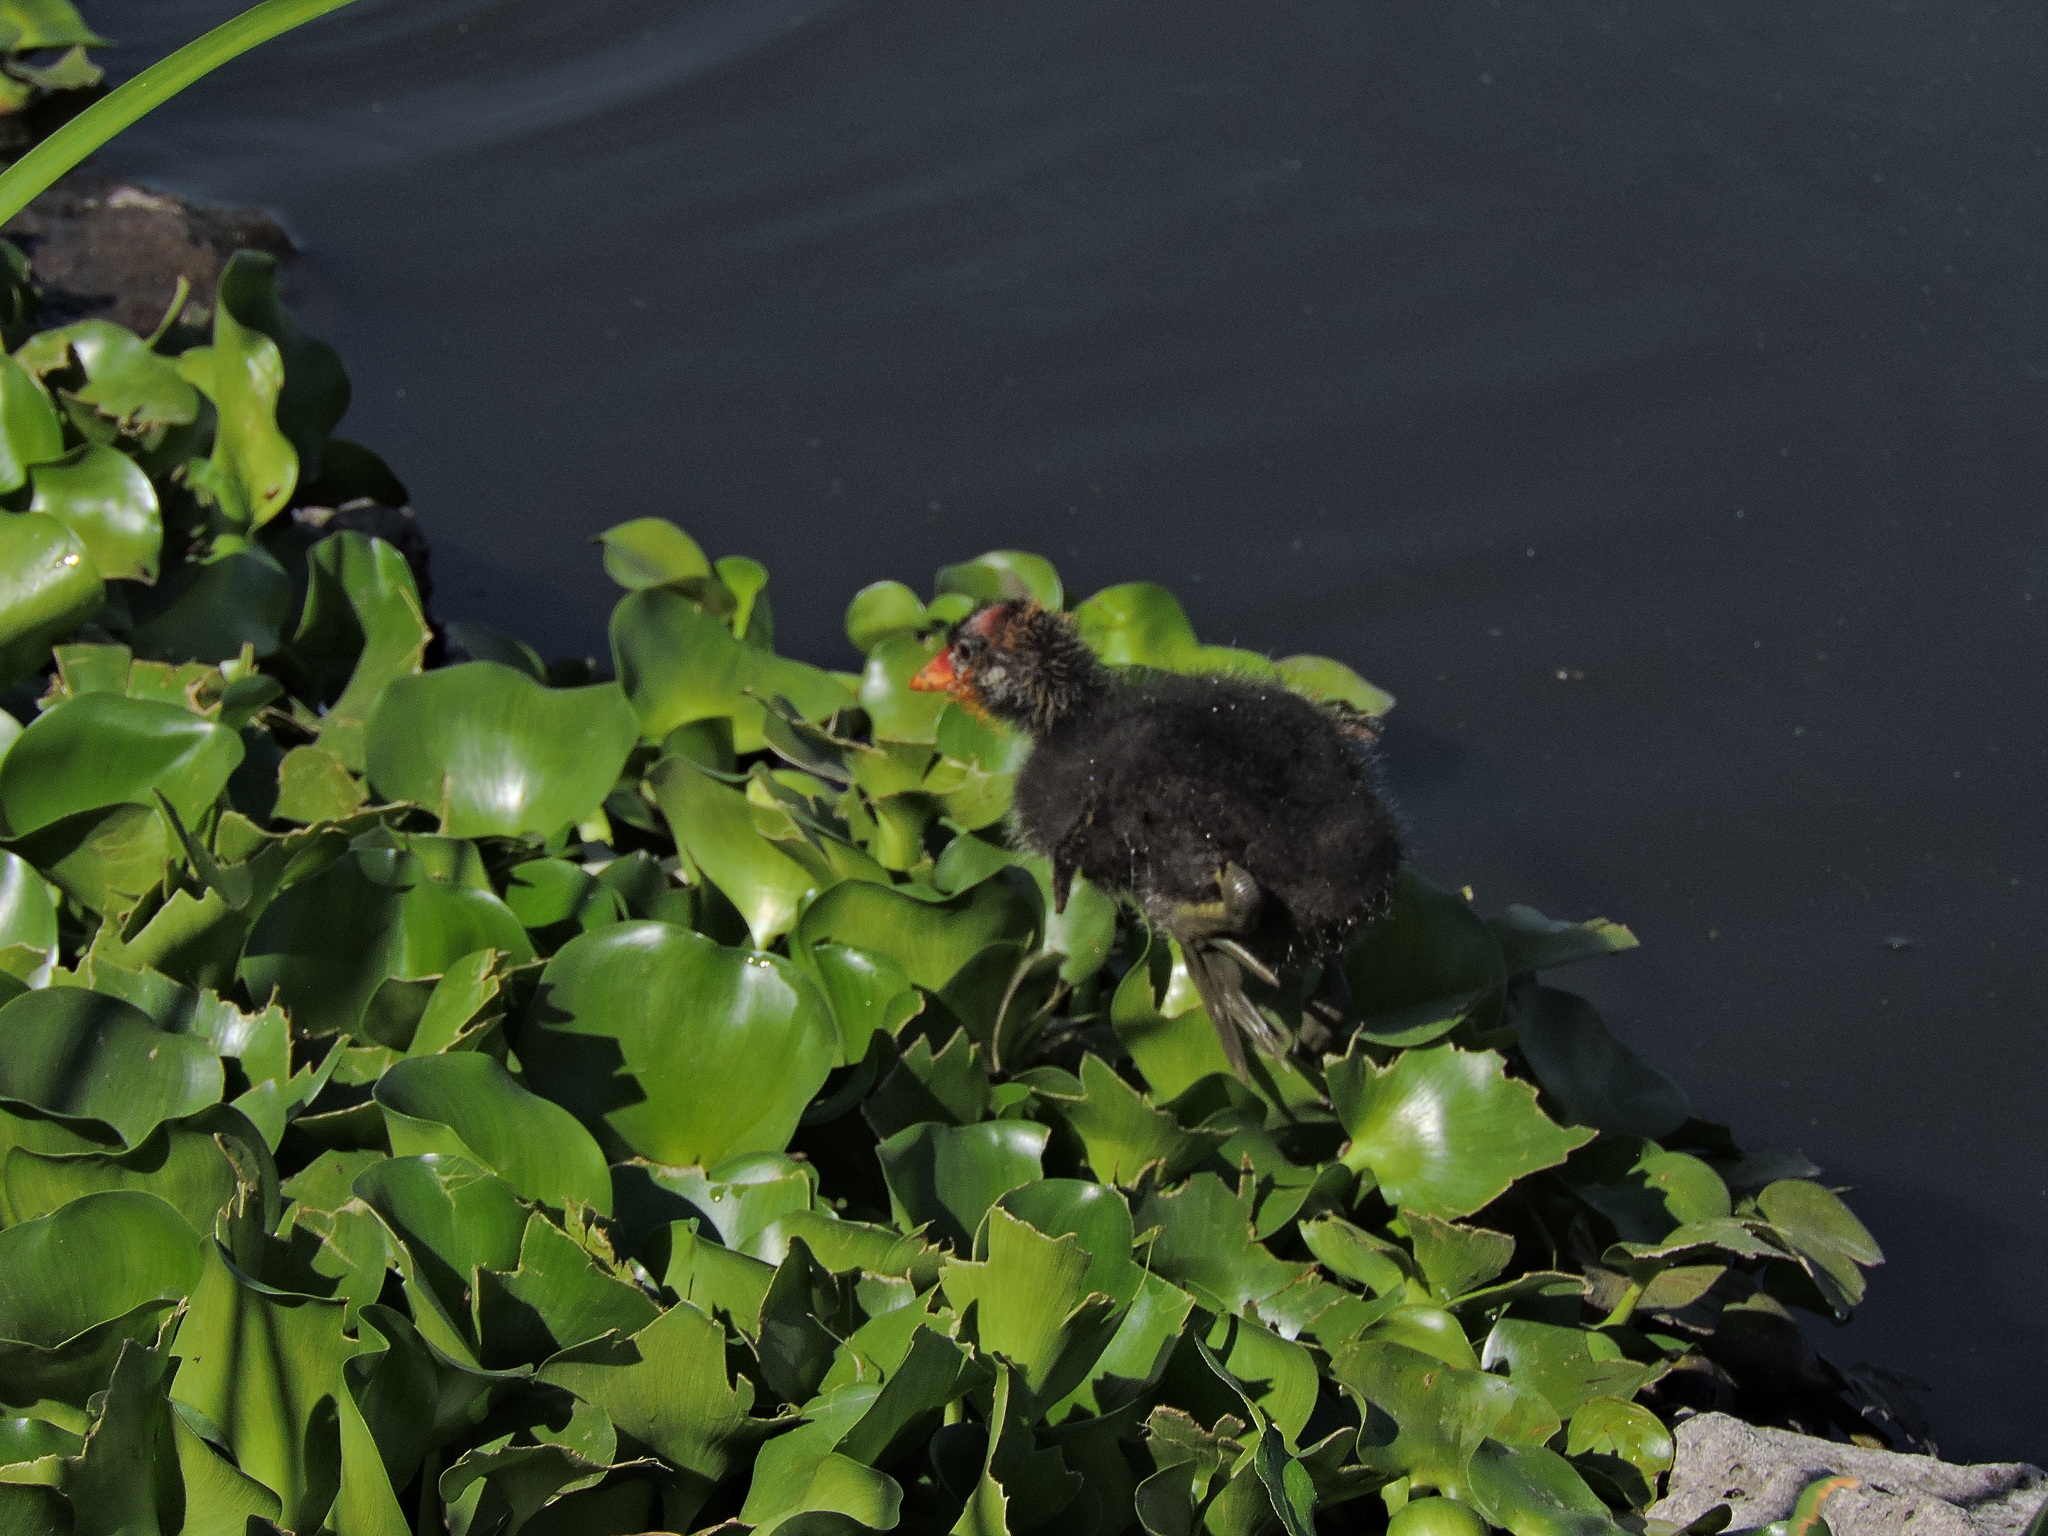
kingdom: Animalia
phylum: Chordata
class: Aves
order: Gruiformes
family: Rallidae
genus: Fulica
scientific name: Fulica americana
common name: American coot
